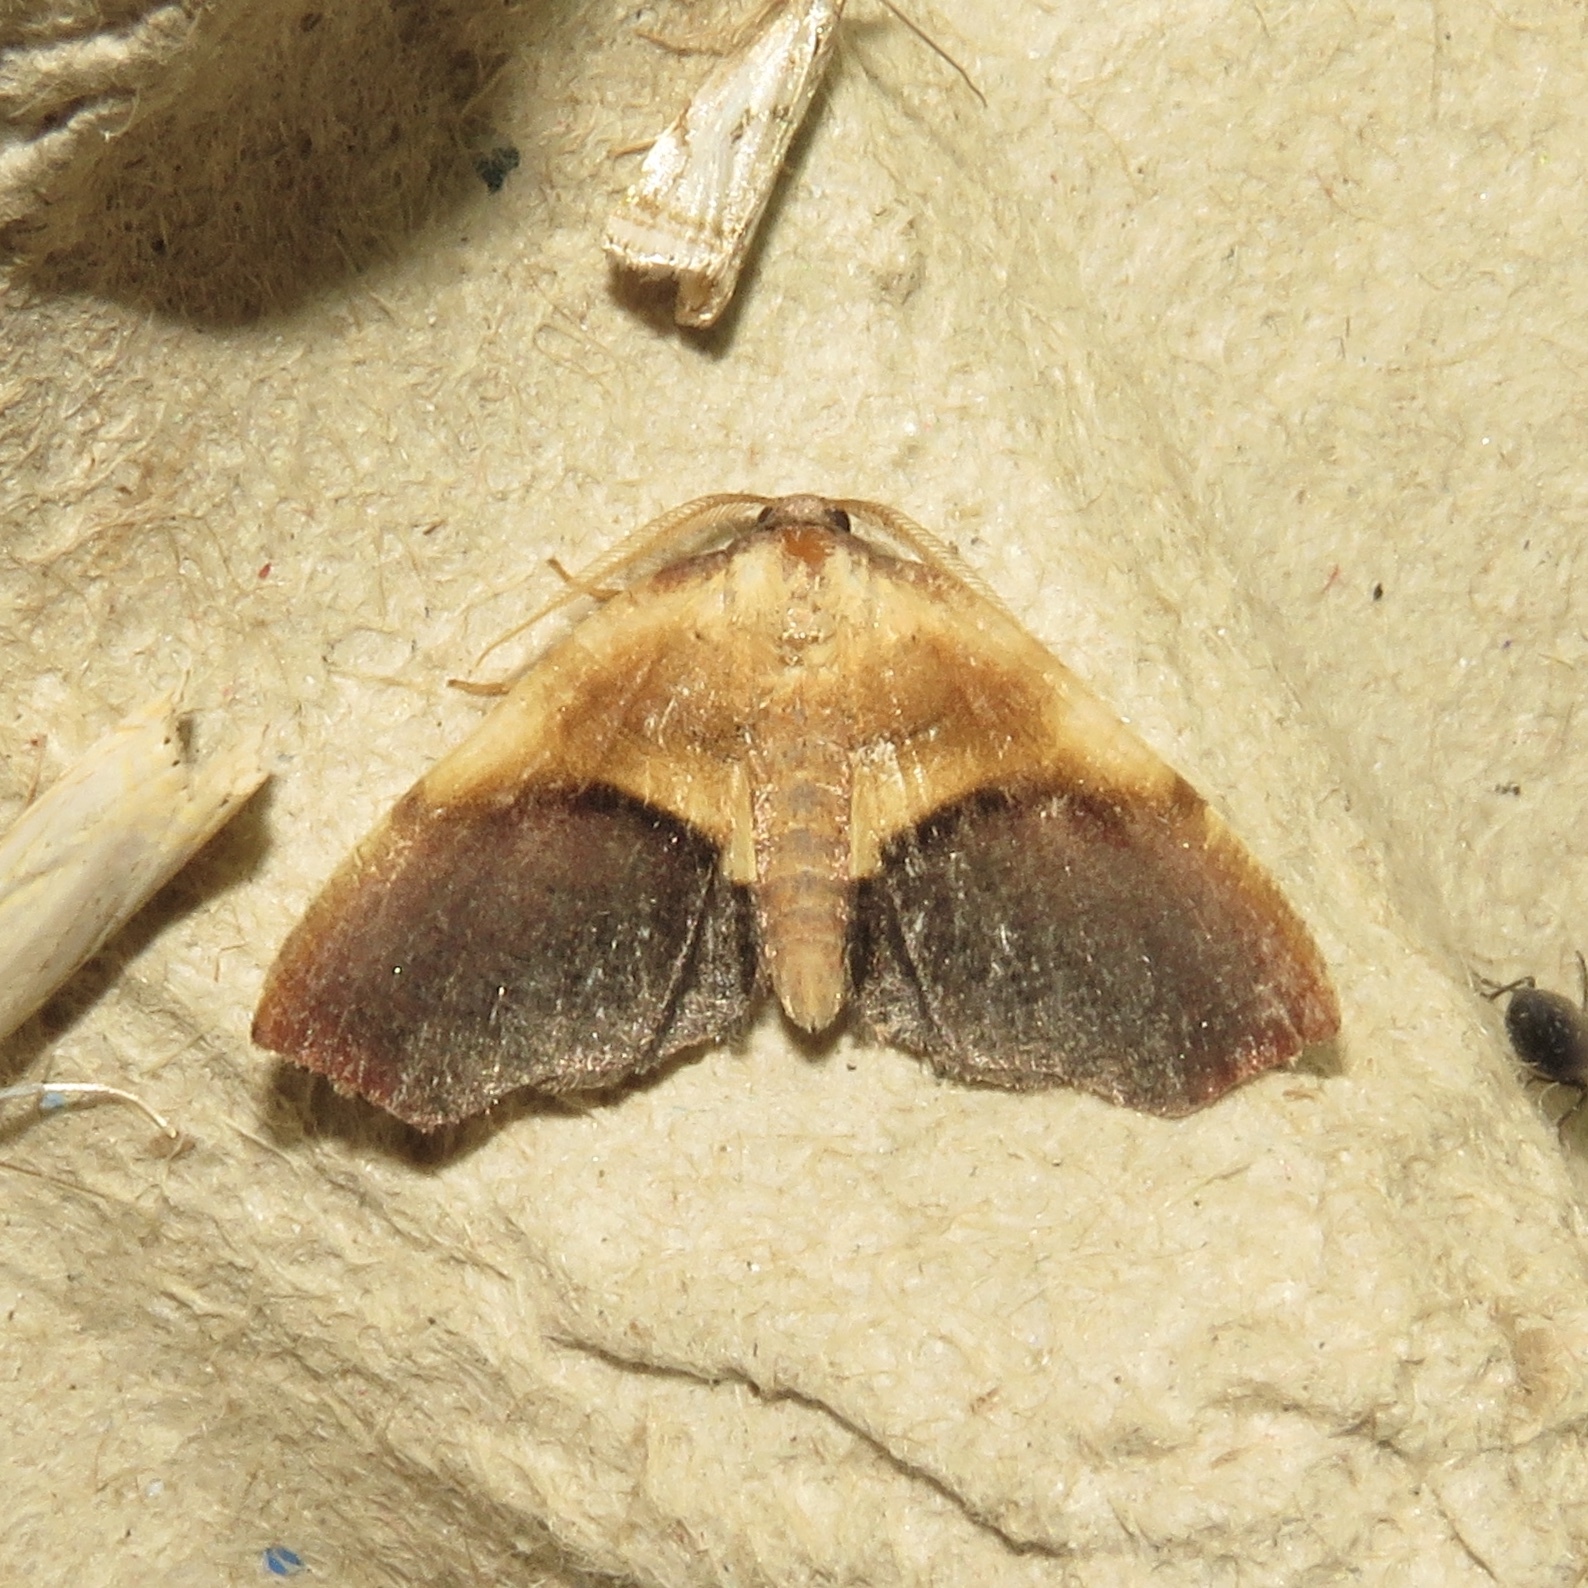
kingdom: Animalia
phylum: Arthropoda
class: Insecta
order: Lepidoptera
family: Geometridae
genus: Plagodis
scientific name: Plagodis kuetzingi
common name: Purple plagodis
